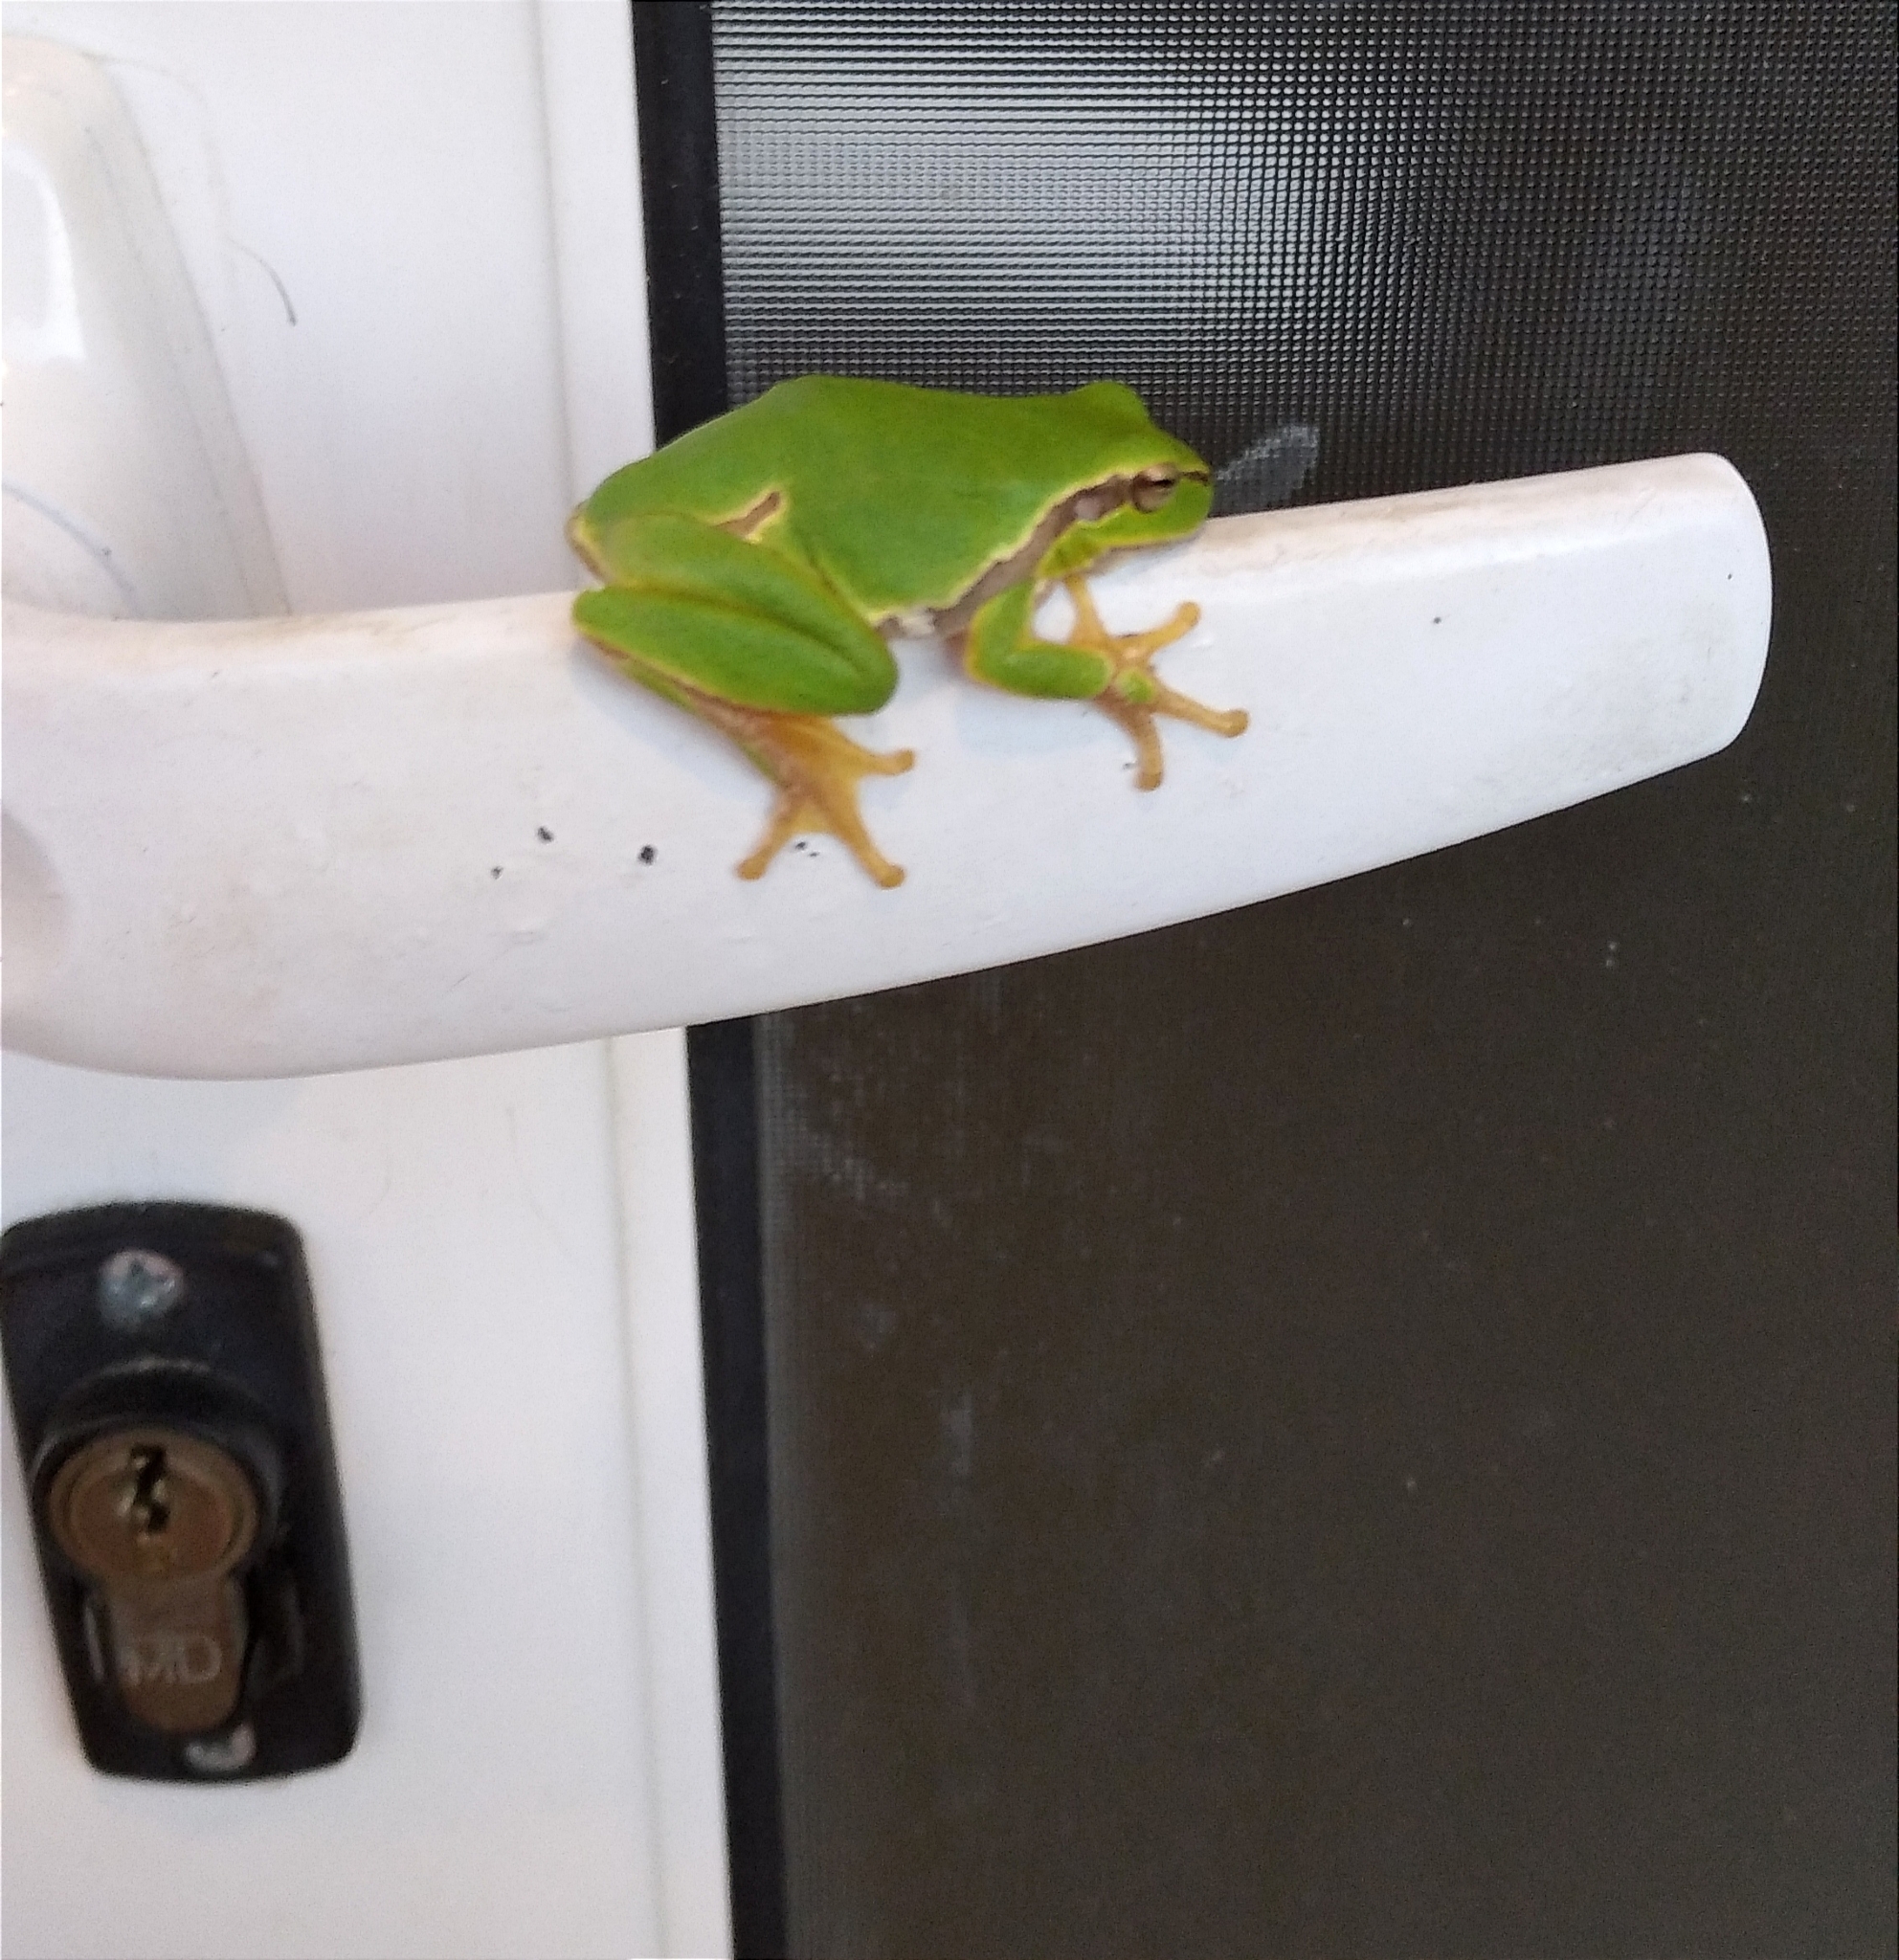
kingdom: Animalia
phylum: Chordata
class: Amphibia
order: Anura
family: Hylidae
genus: Hyla
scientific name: Hyla orientalis
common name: Caucasian treefrog
